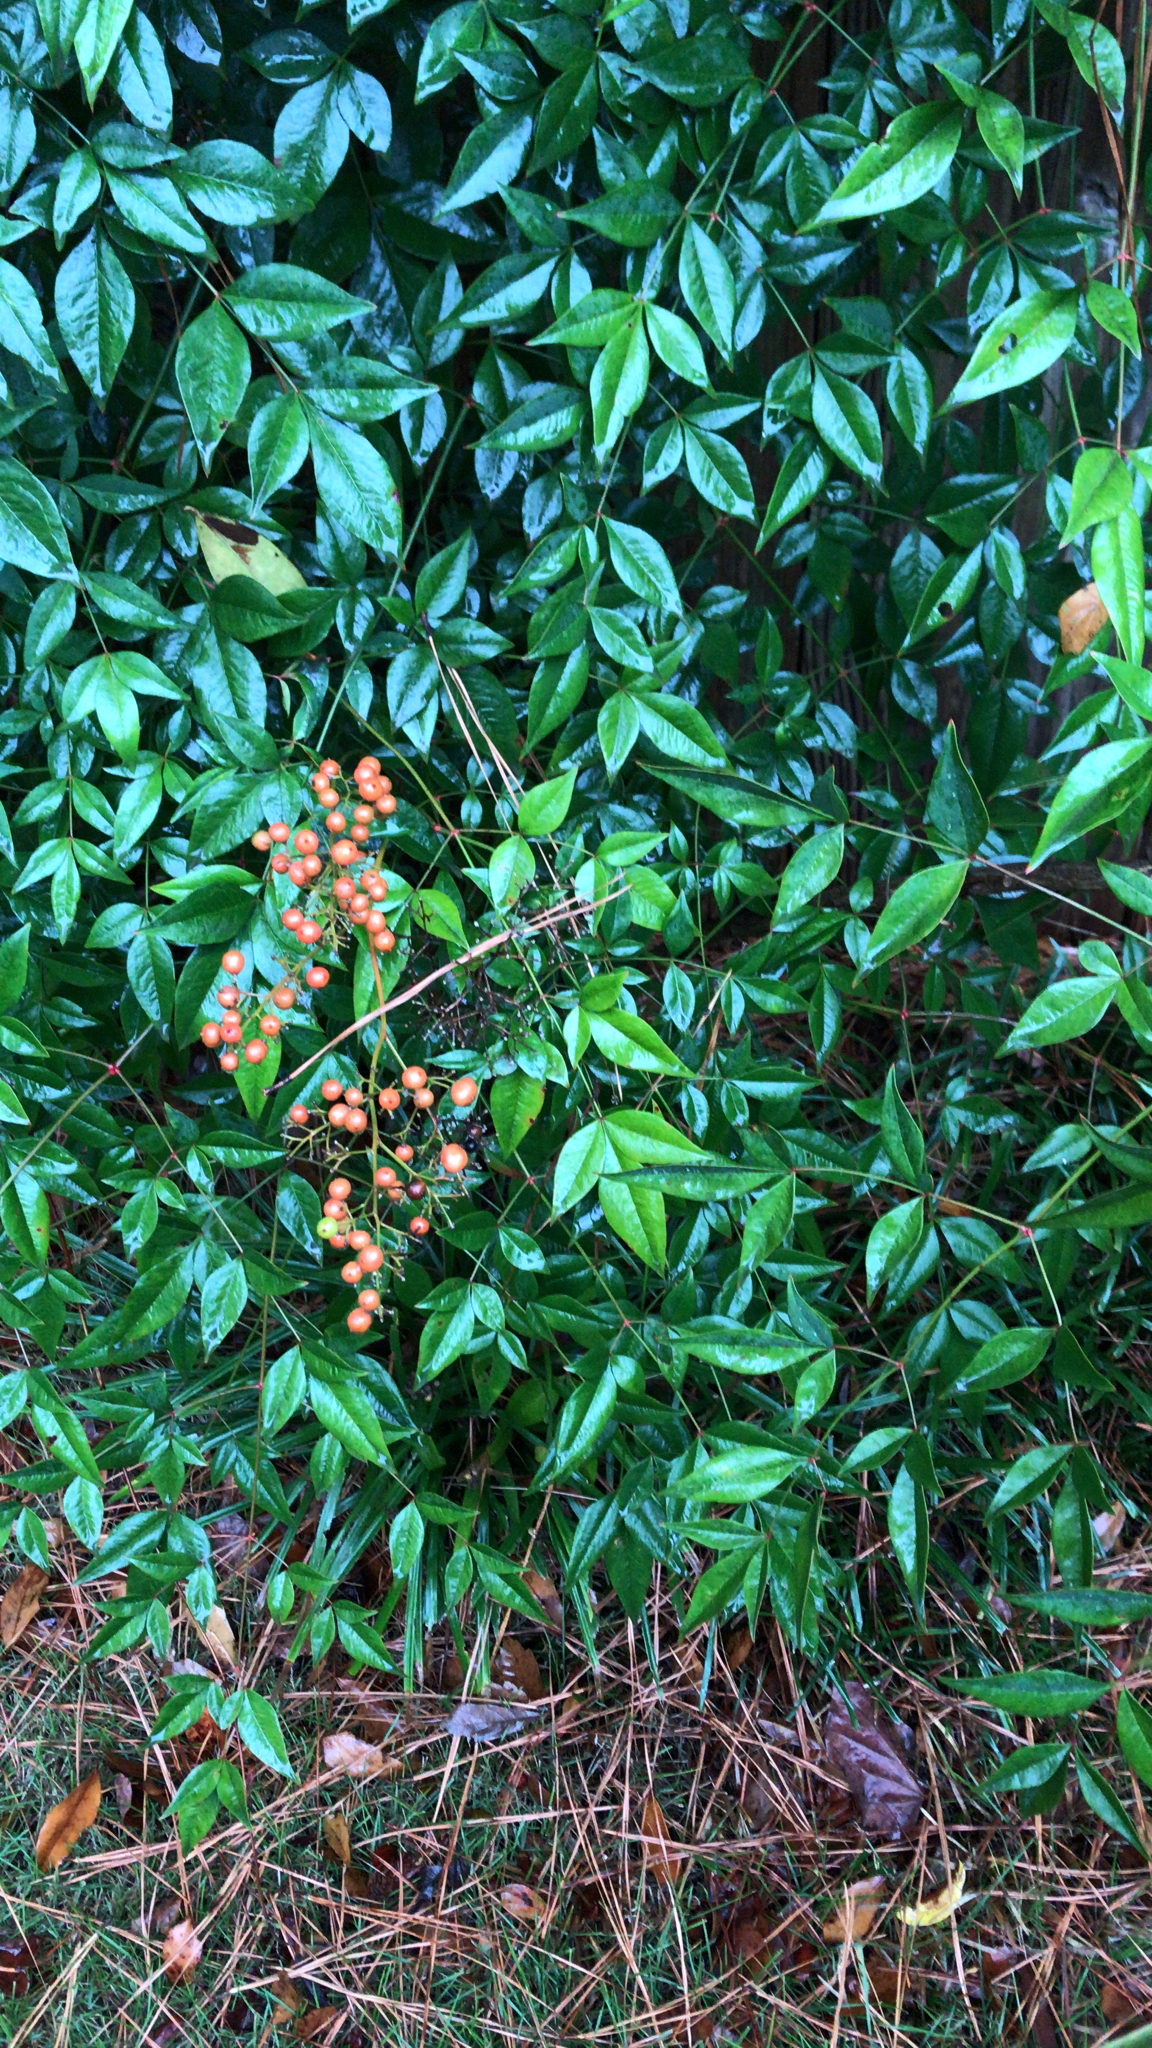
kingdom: Plantae
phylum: Tracheophyta
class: Magnoliopsida
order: Ranunculales
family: Berberidaceae
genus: Nandina
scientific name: Nandina domestica
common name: Sacred bamboo
